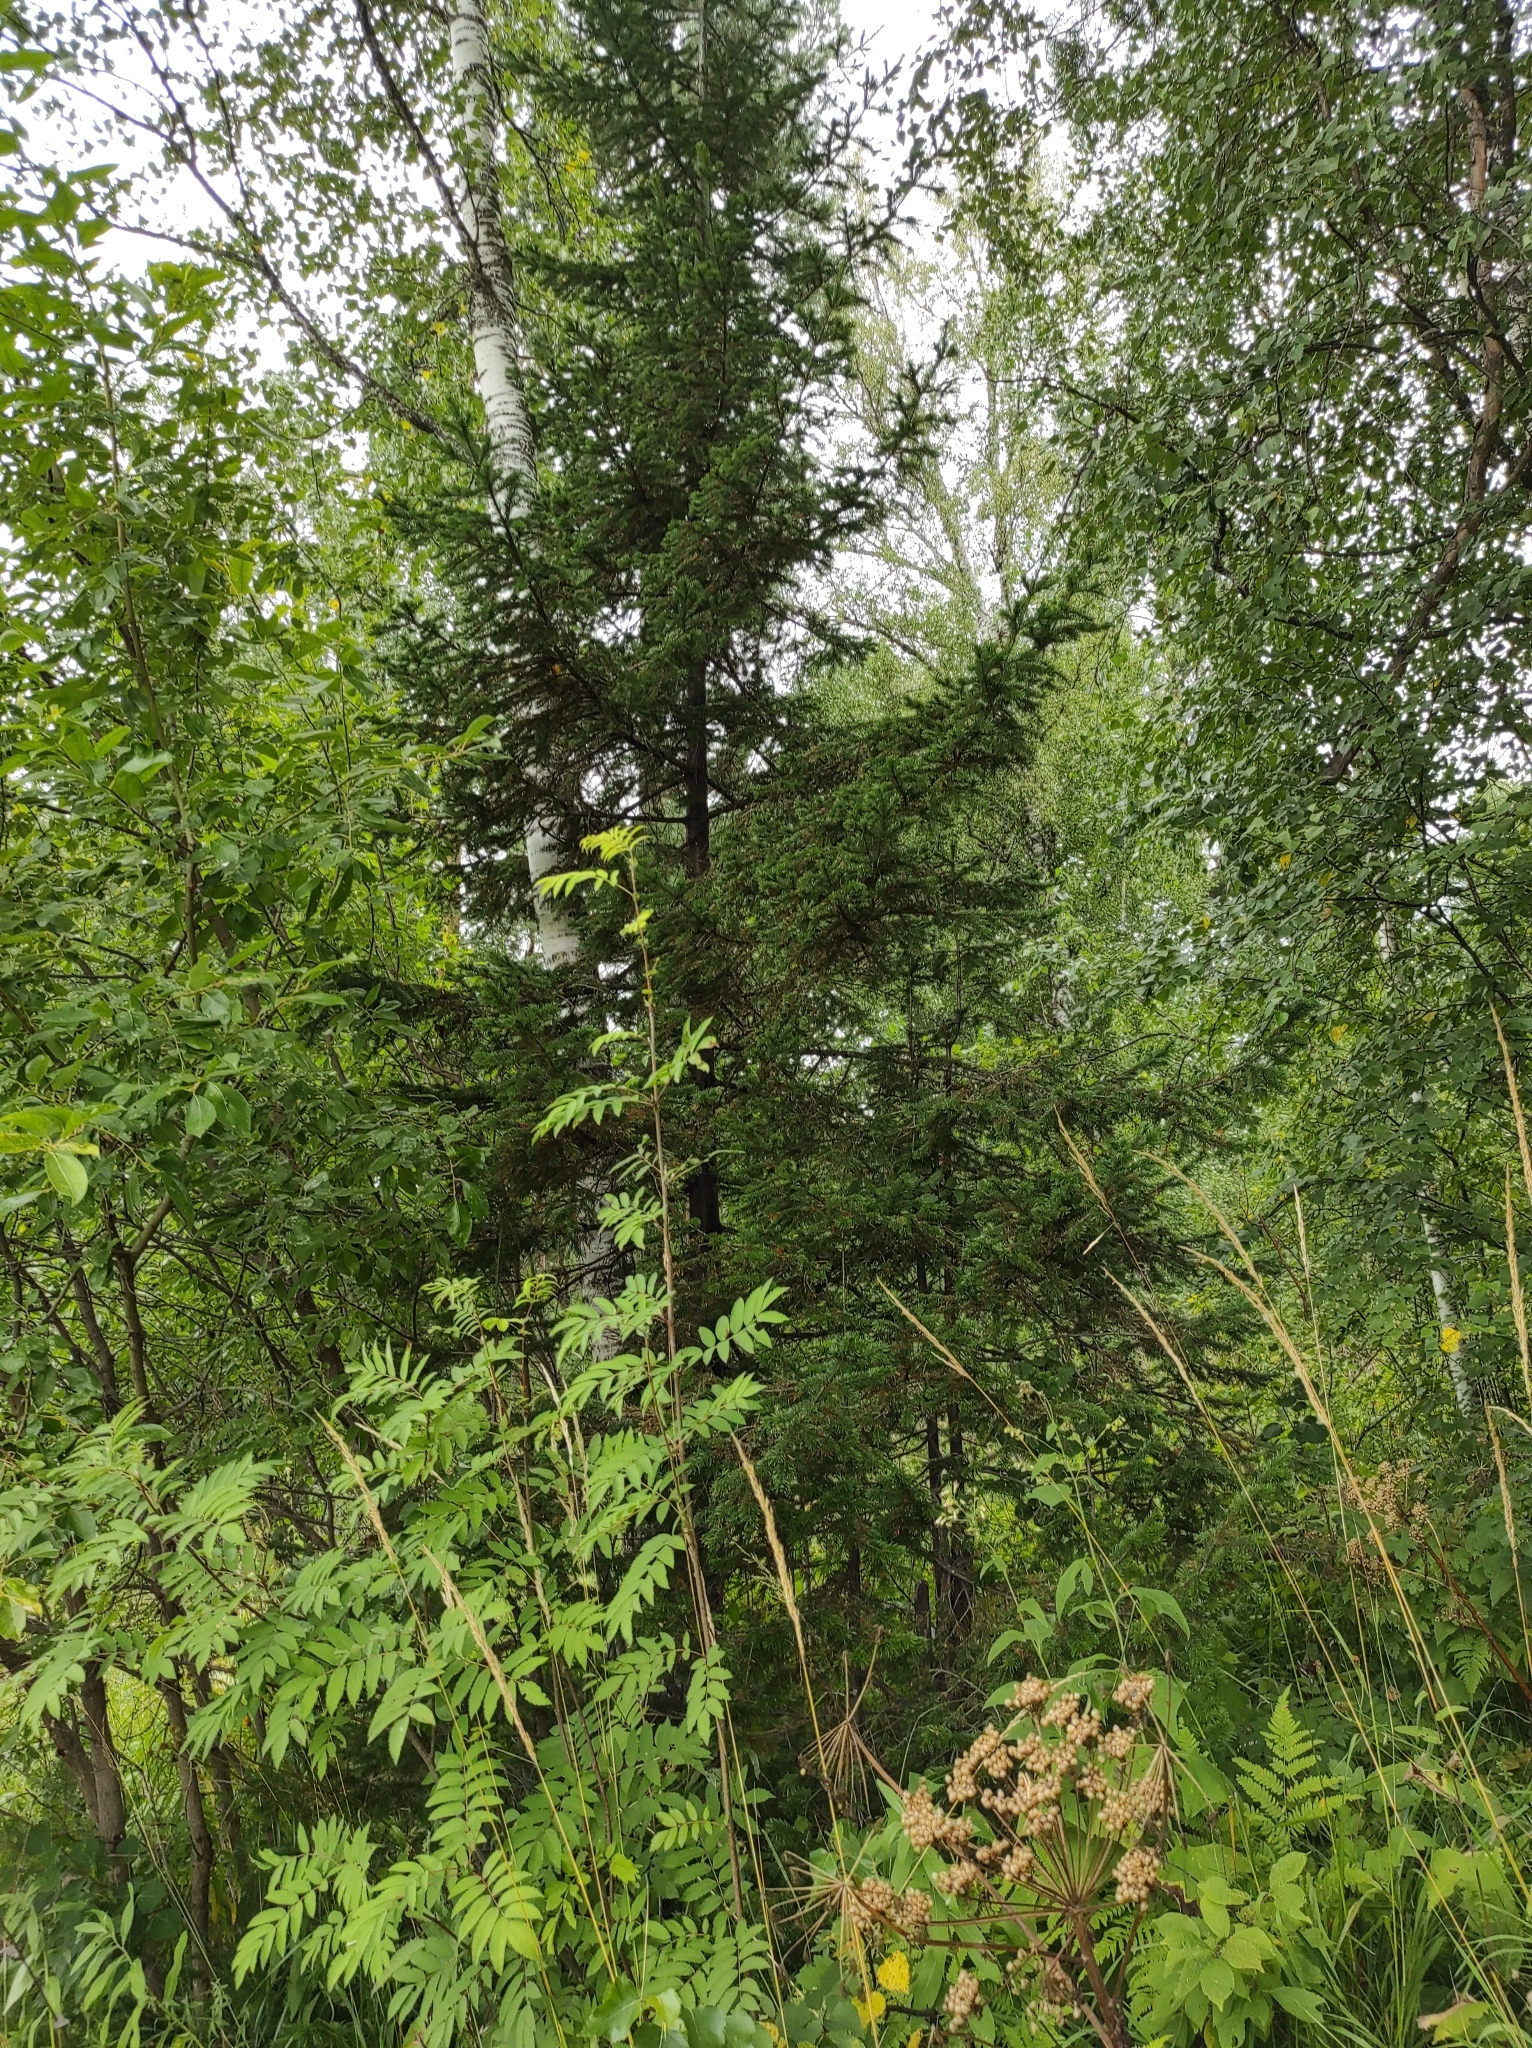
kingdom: Plantae
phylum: Tracheophyta
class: Pinopsida
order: Pinales
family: Pinaceae
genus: Abies
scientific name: Abies sibirica
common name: Siberian fir
